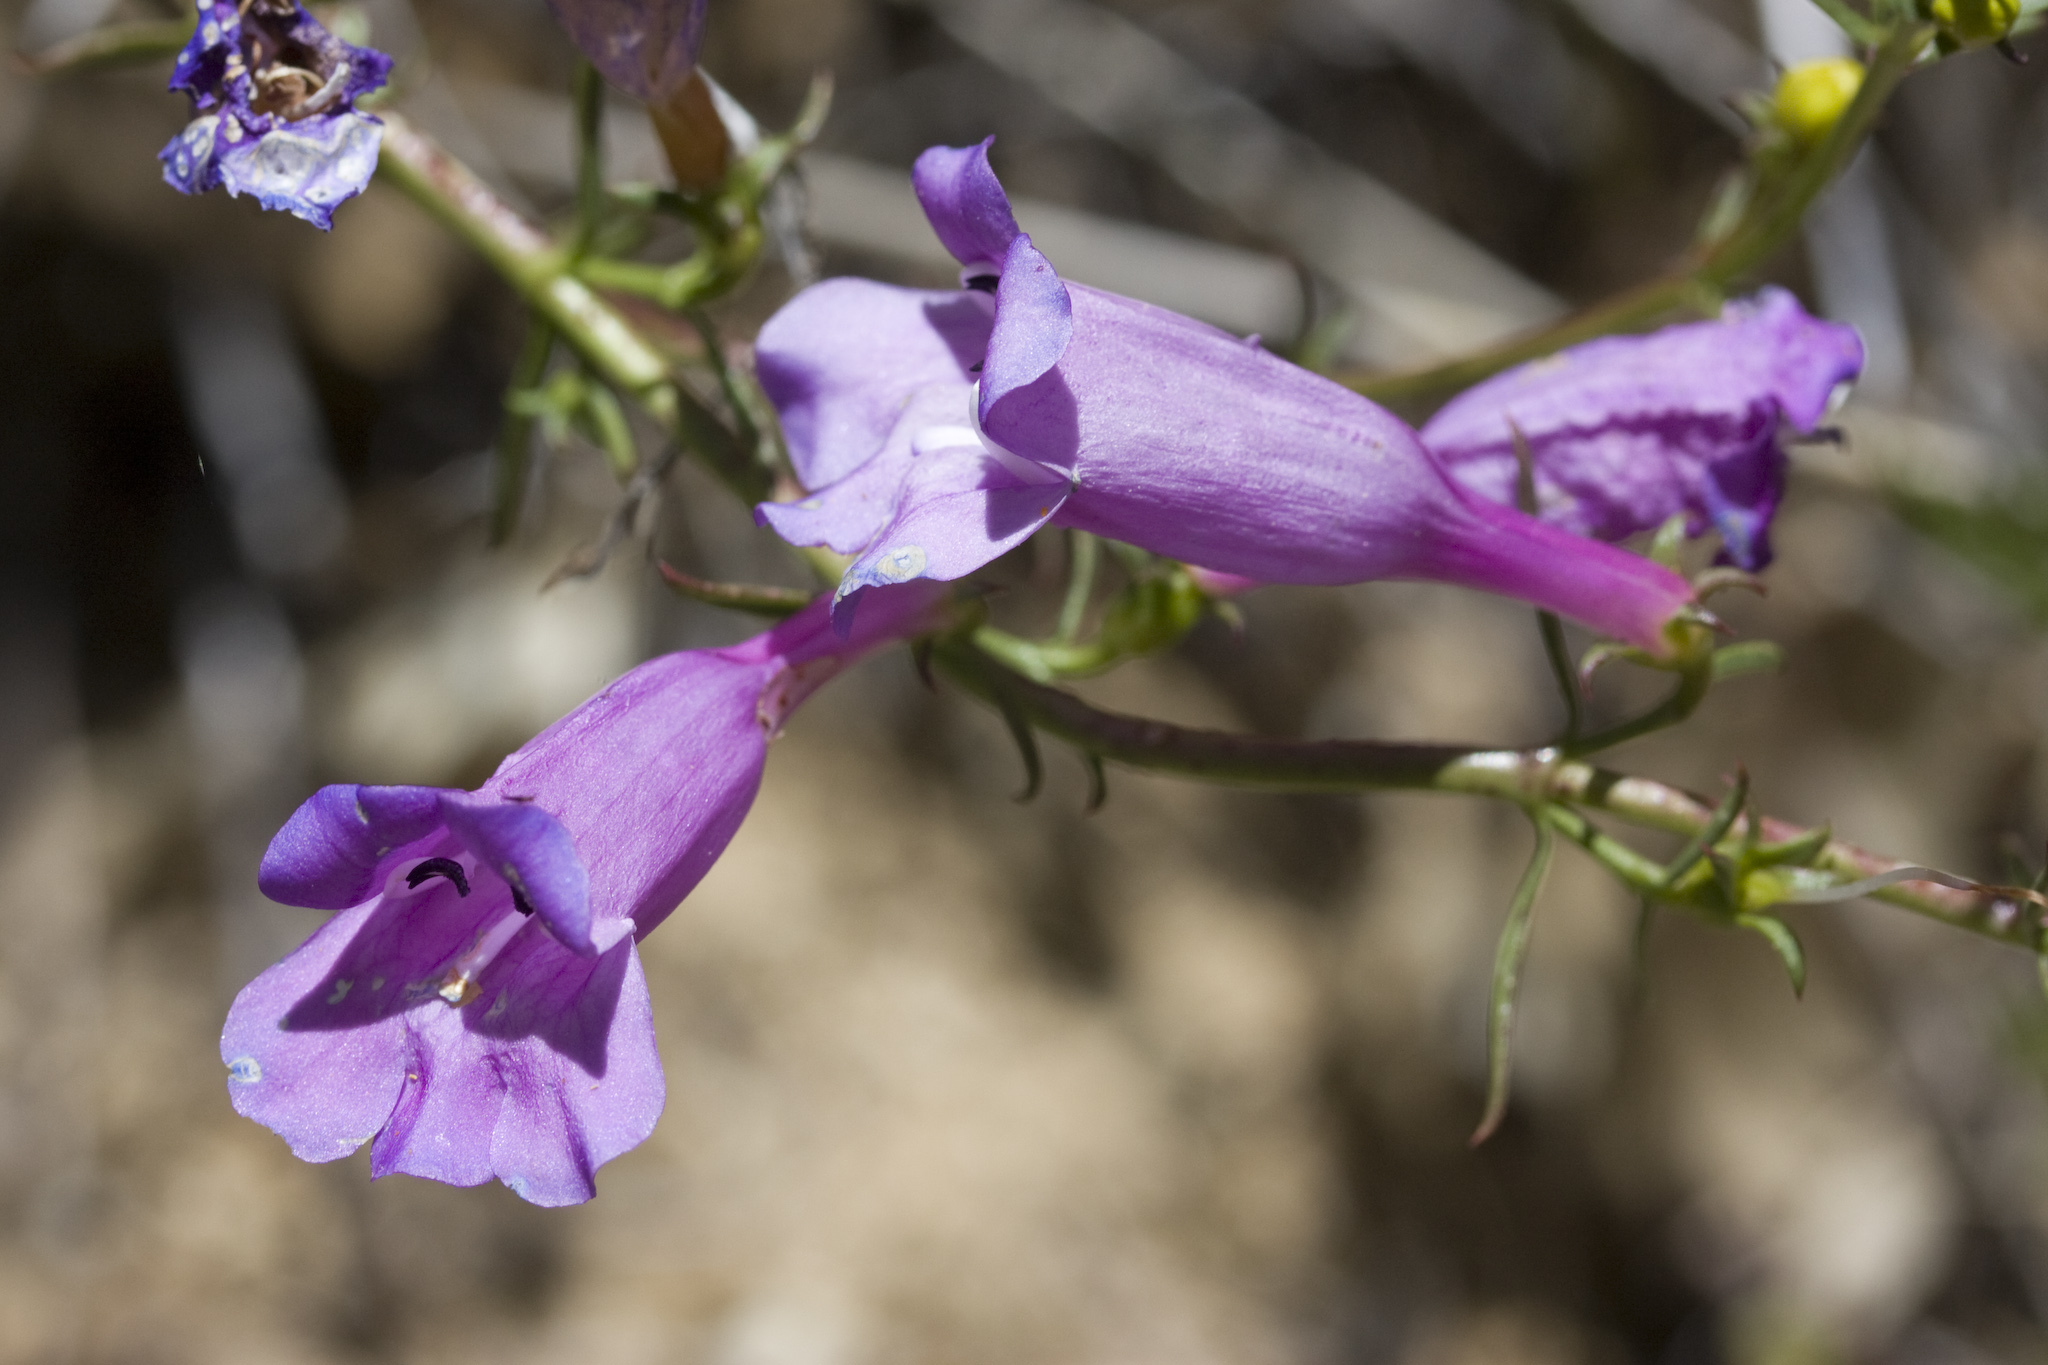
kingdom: Plantae
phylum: Tracheophyta
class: Magnoliopsida
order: Lamiales
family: Plantaginaceae
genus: Penstemon
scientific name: Penstemon heterophyllus
